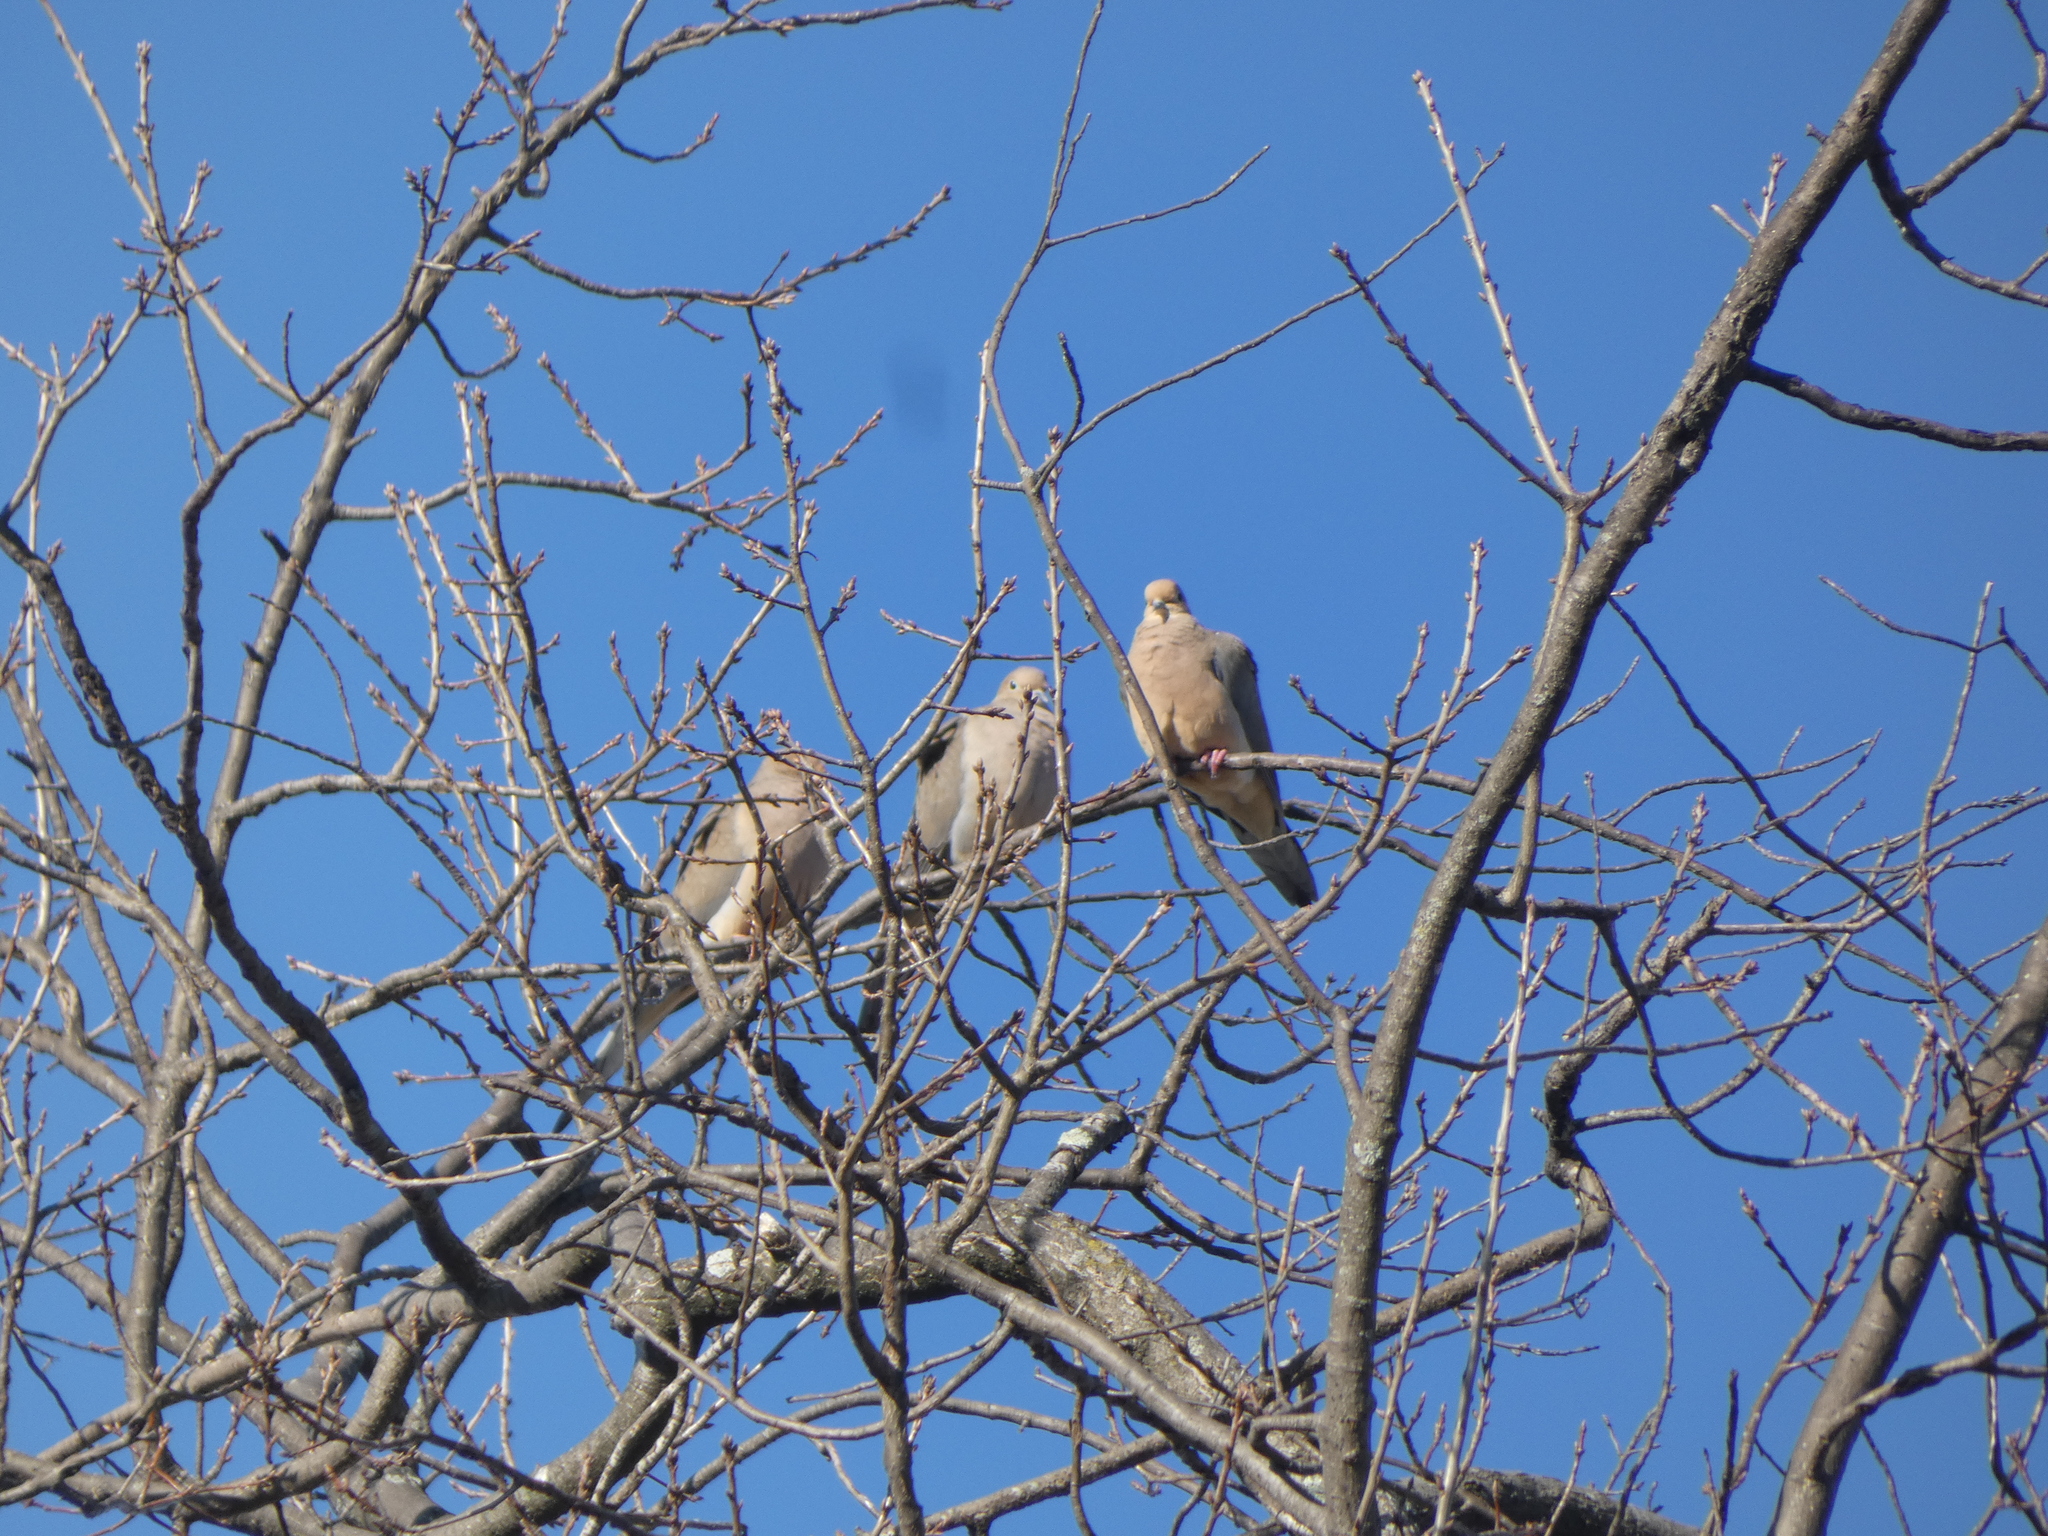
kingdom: Animalia
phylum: Chordata
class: Aves
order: Columbiformes
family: Columbidae
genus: Zenaida
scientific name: Zenaida macroura
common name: Mourning dove
